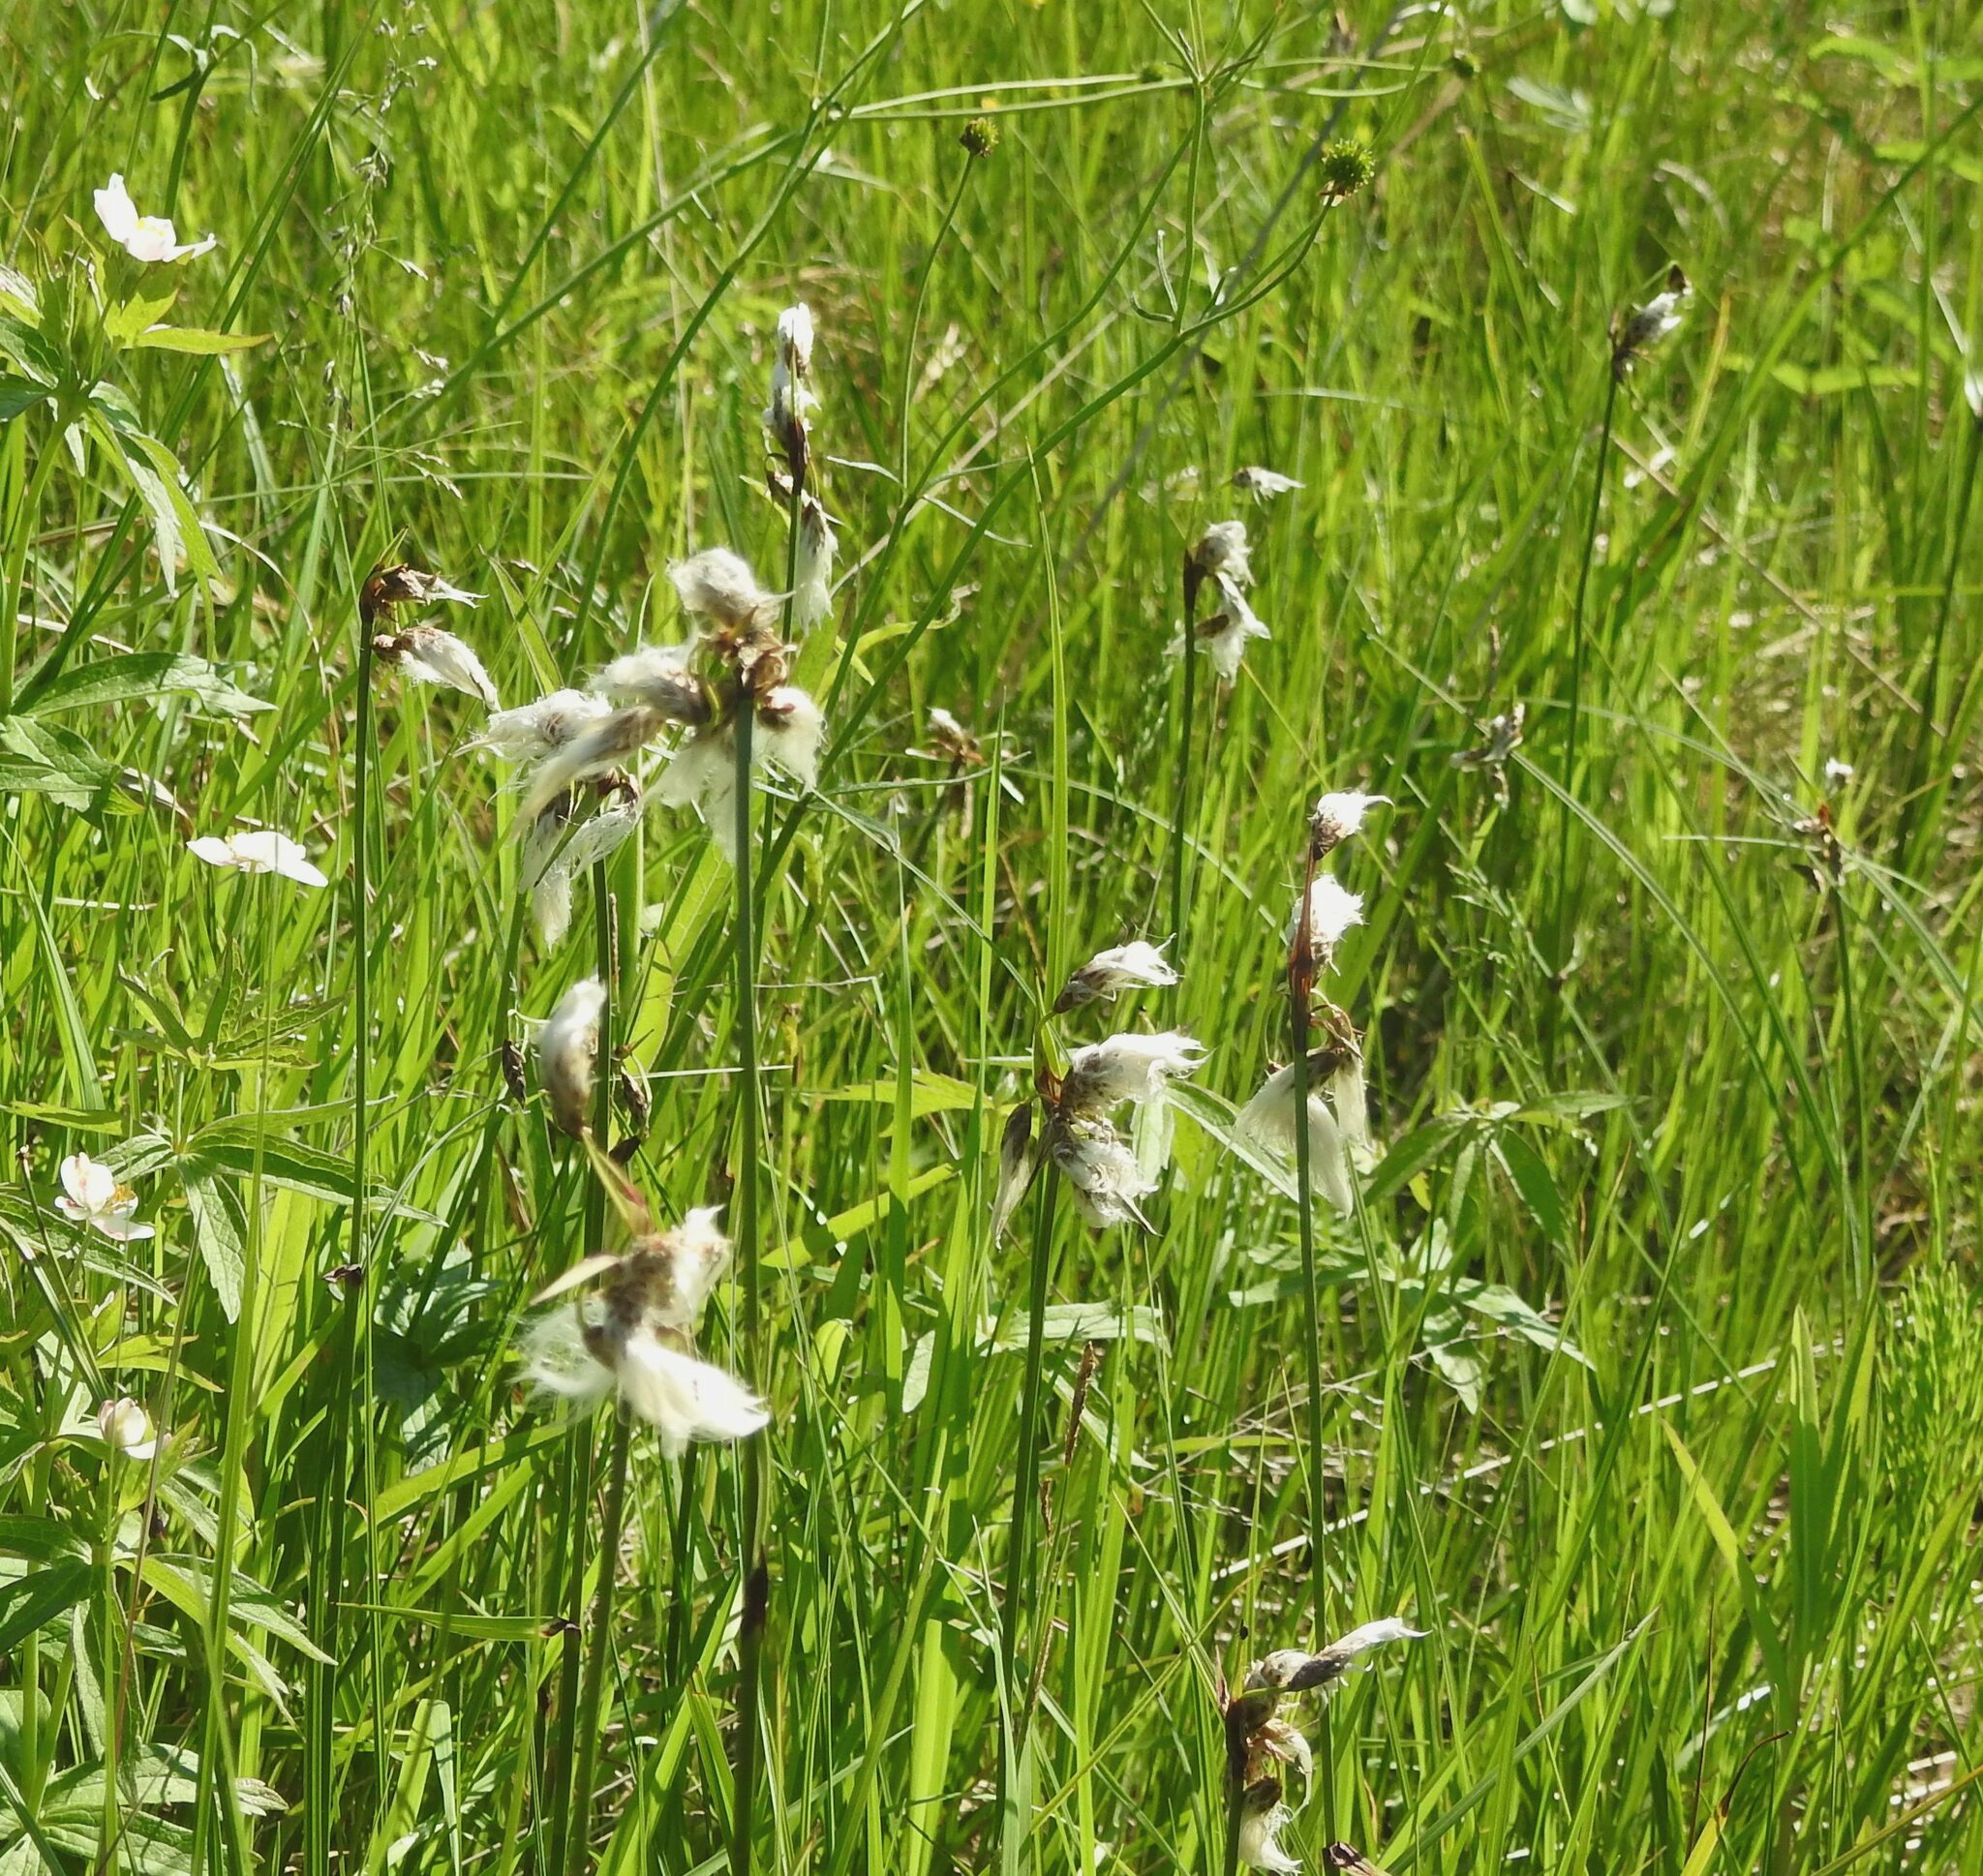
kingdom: Plantae
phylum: Tracheophyta
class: Liliopsida
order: Poales
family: Cyperaceae
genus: Eriophorum
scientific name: Eriophorum angustifolium
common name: Common cottongrass
